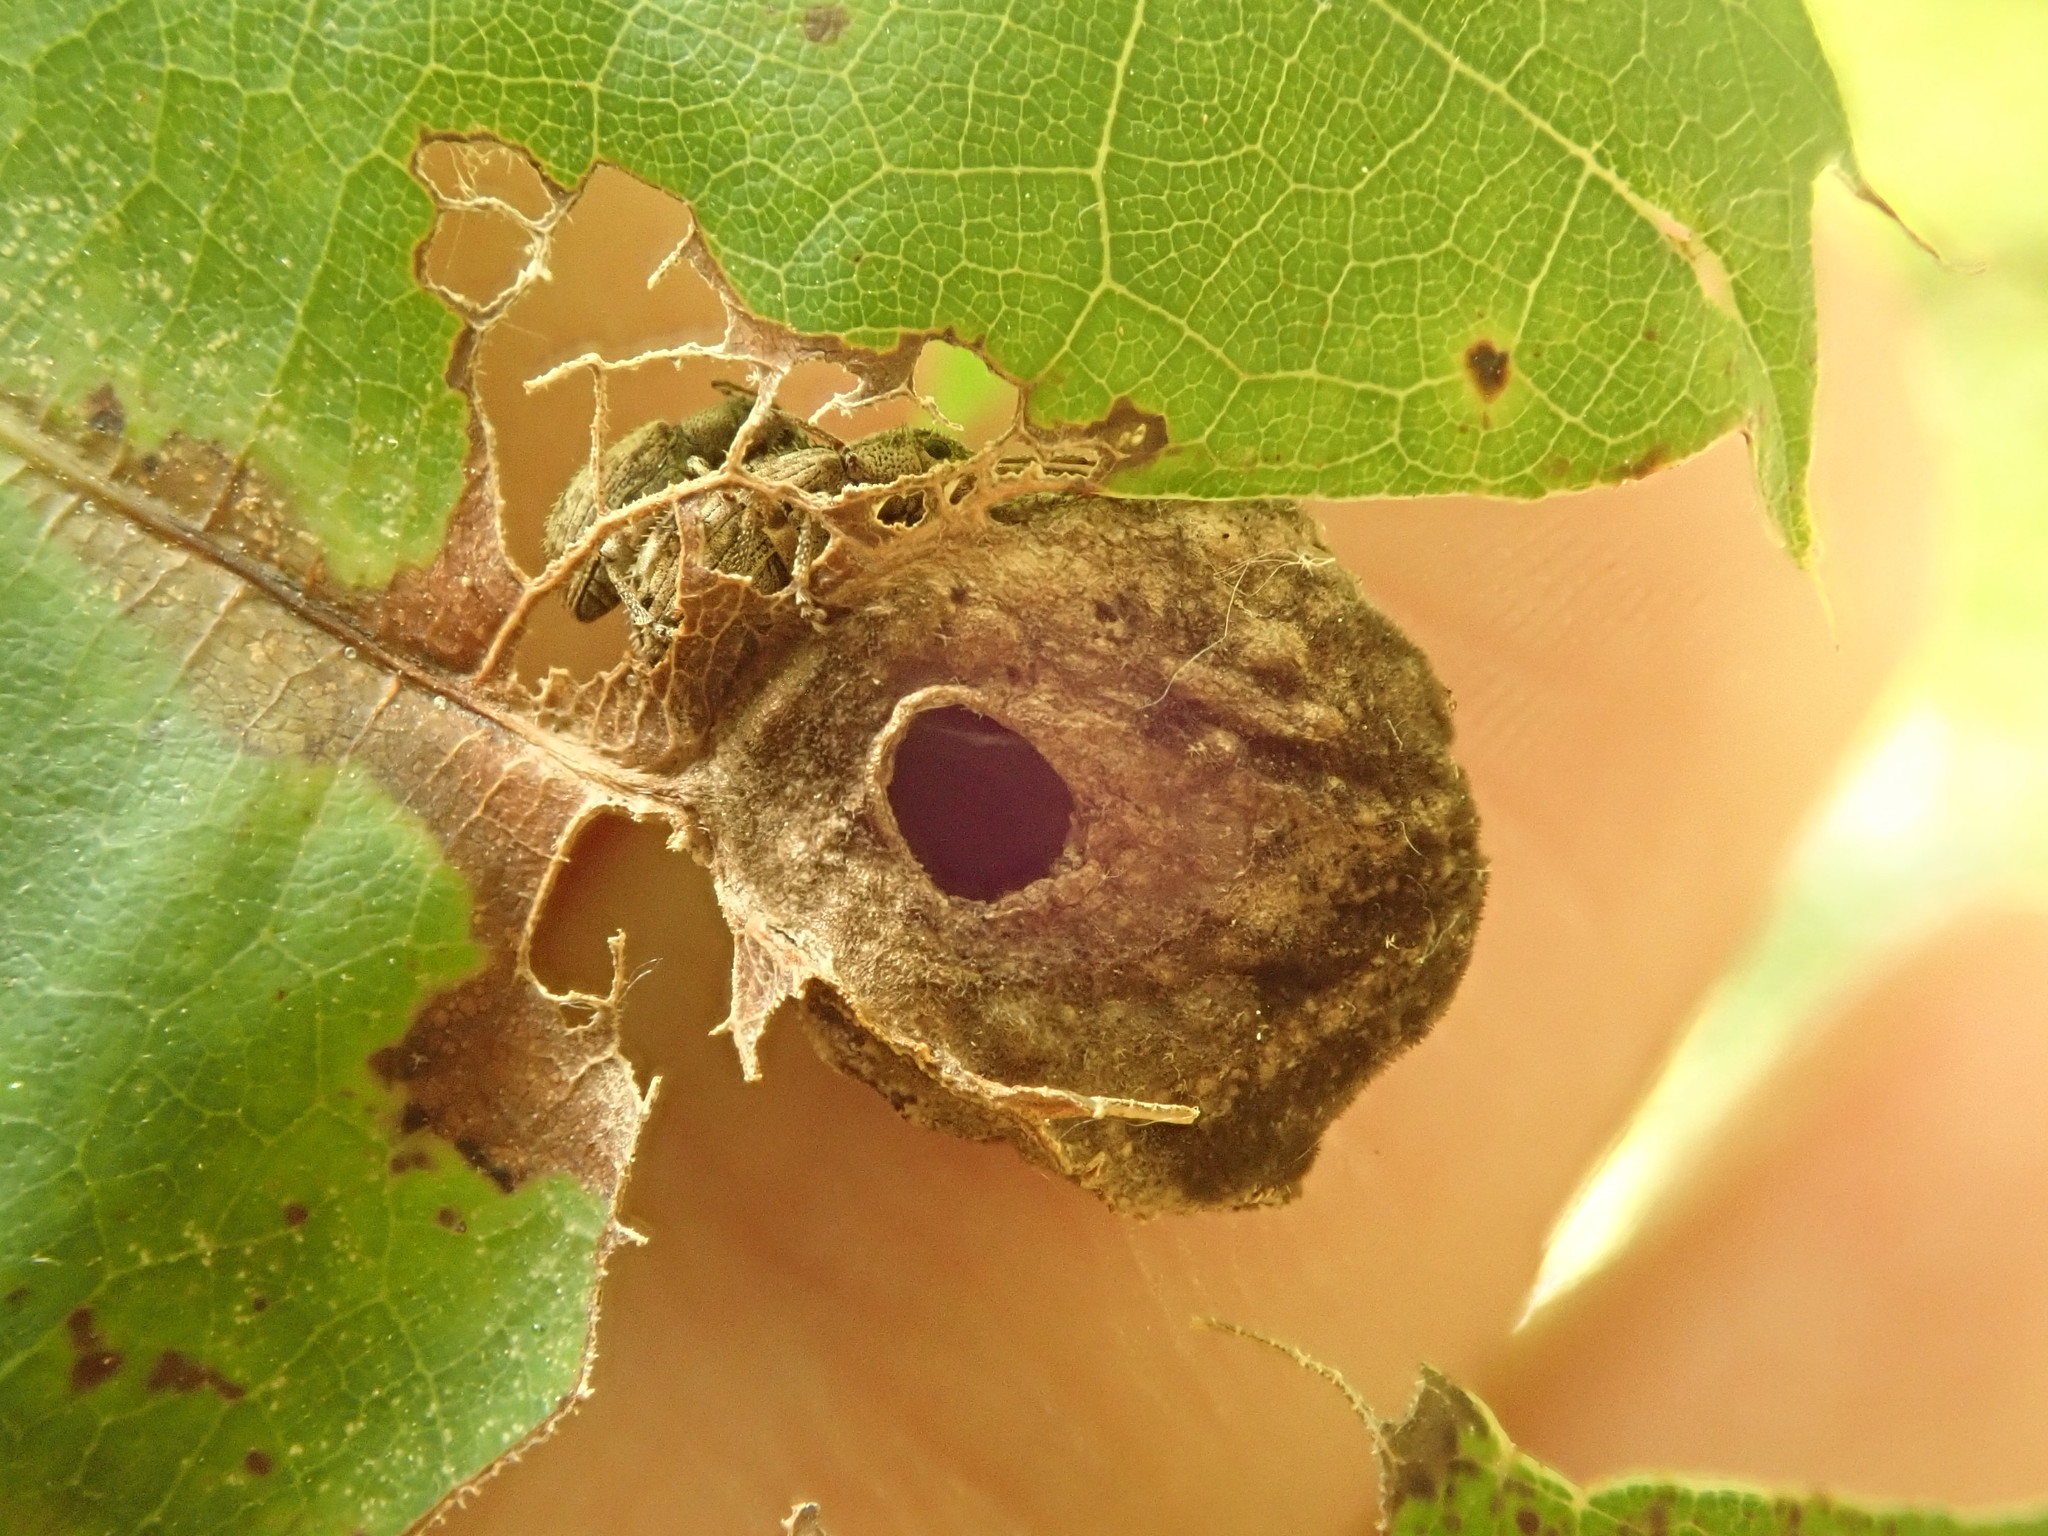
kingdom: Animalia
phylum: Arthropoda
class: Insecta
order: Hymenoptera
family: Cynipidae
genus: Dryocosmus
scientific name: Dryocosmus quercuspalustris
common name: Succulent oak gall wasp
